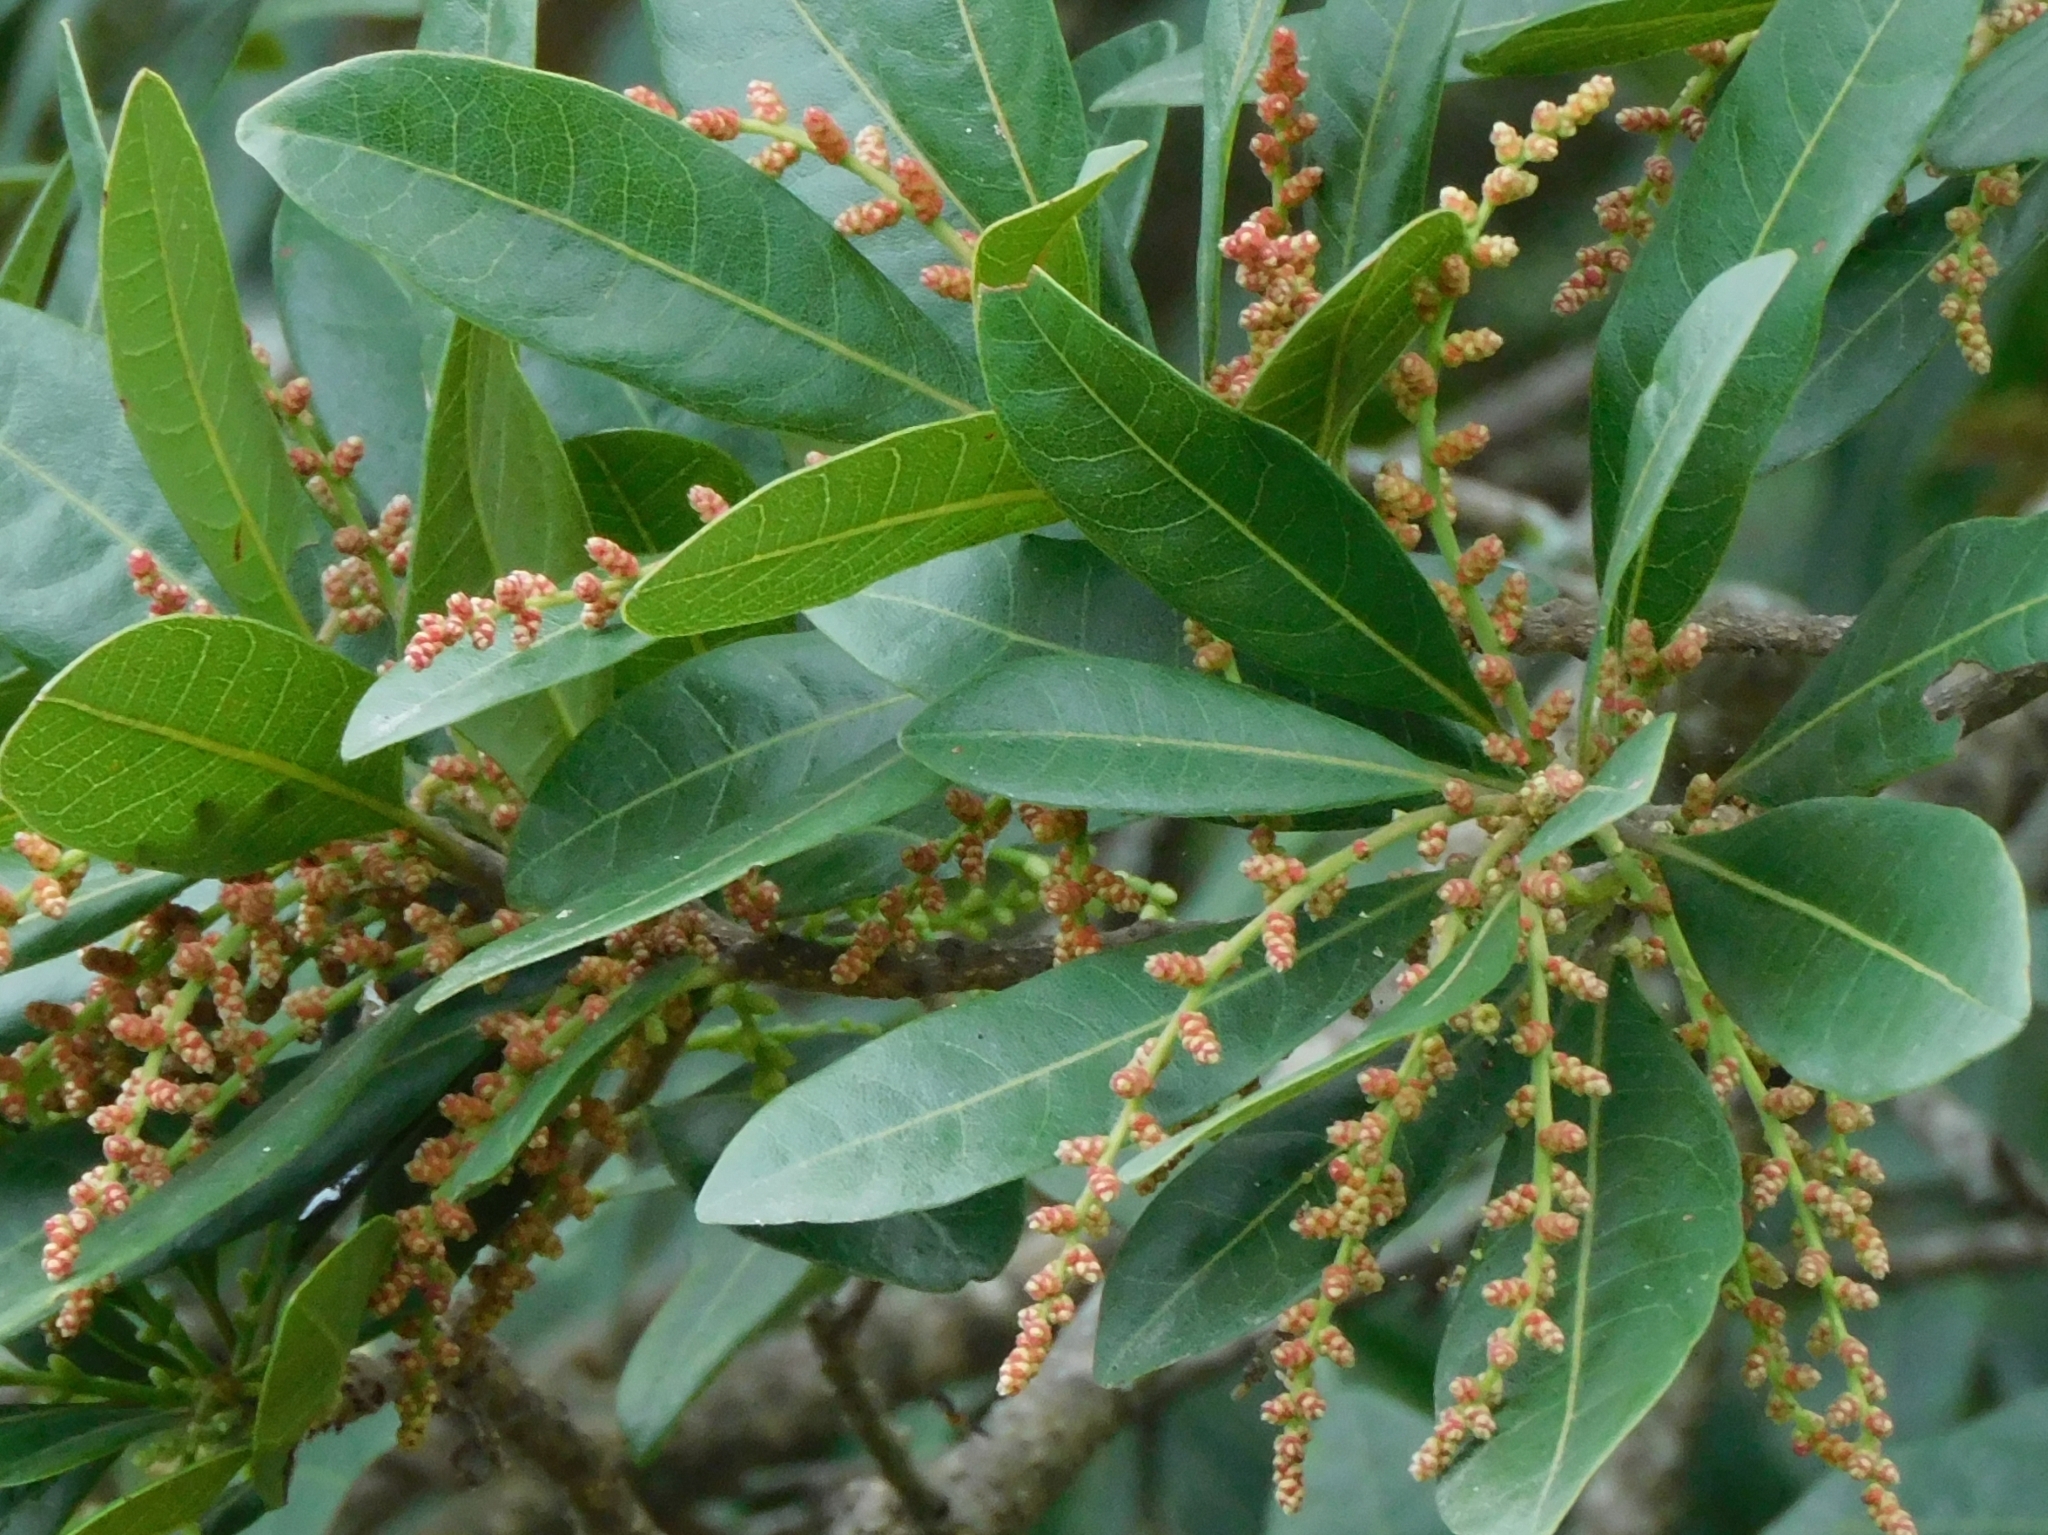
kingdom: Plantae
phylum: Tracheophyta
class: Magnoliopsida
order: Fagales
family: Myricaceae
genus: Morella
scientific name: Morella esculenta
